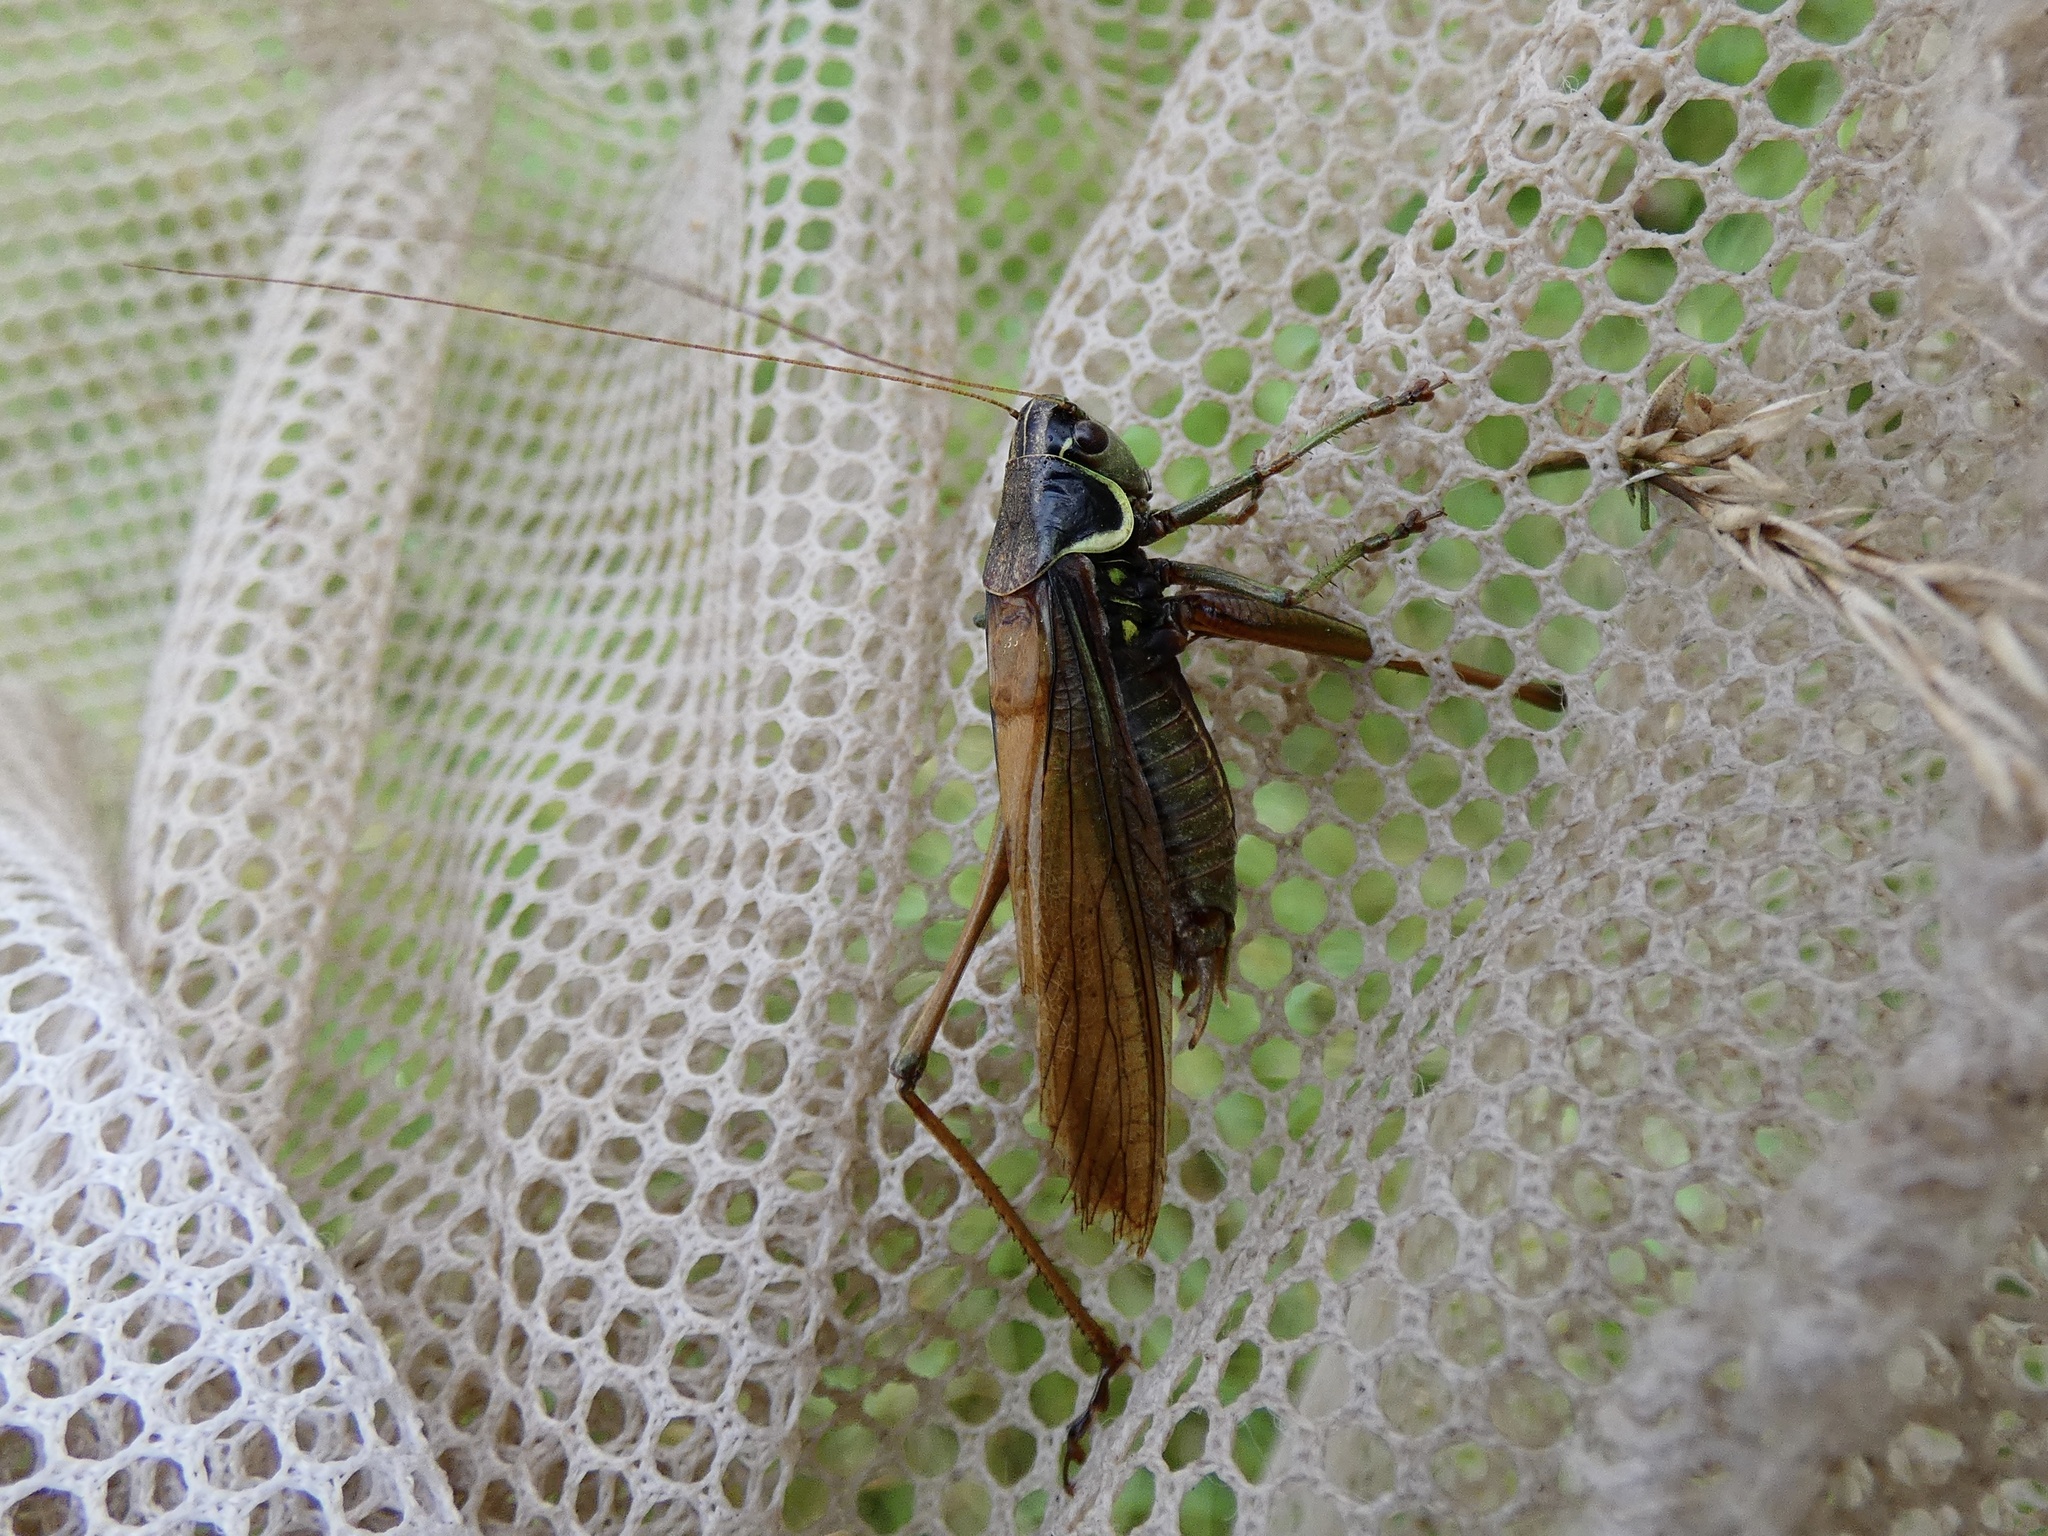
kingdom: Animalia
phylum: Arthropoda
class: Insecta
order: Orthoptera
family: Tettigoniidae
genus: Roeseliana
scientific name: Roeseliana roeselii
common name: Roesel's bush cricket
